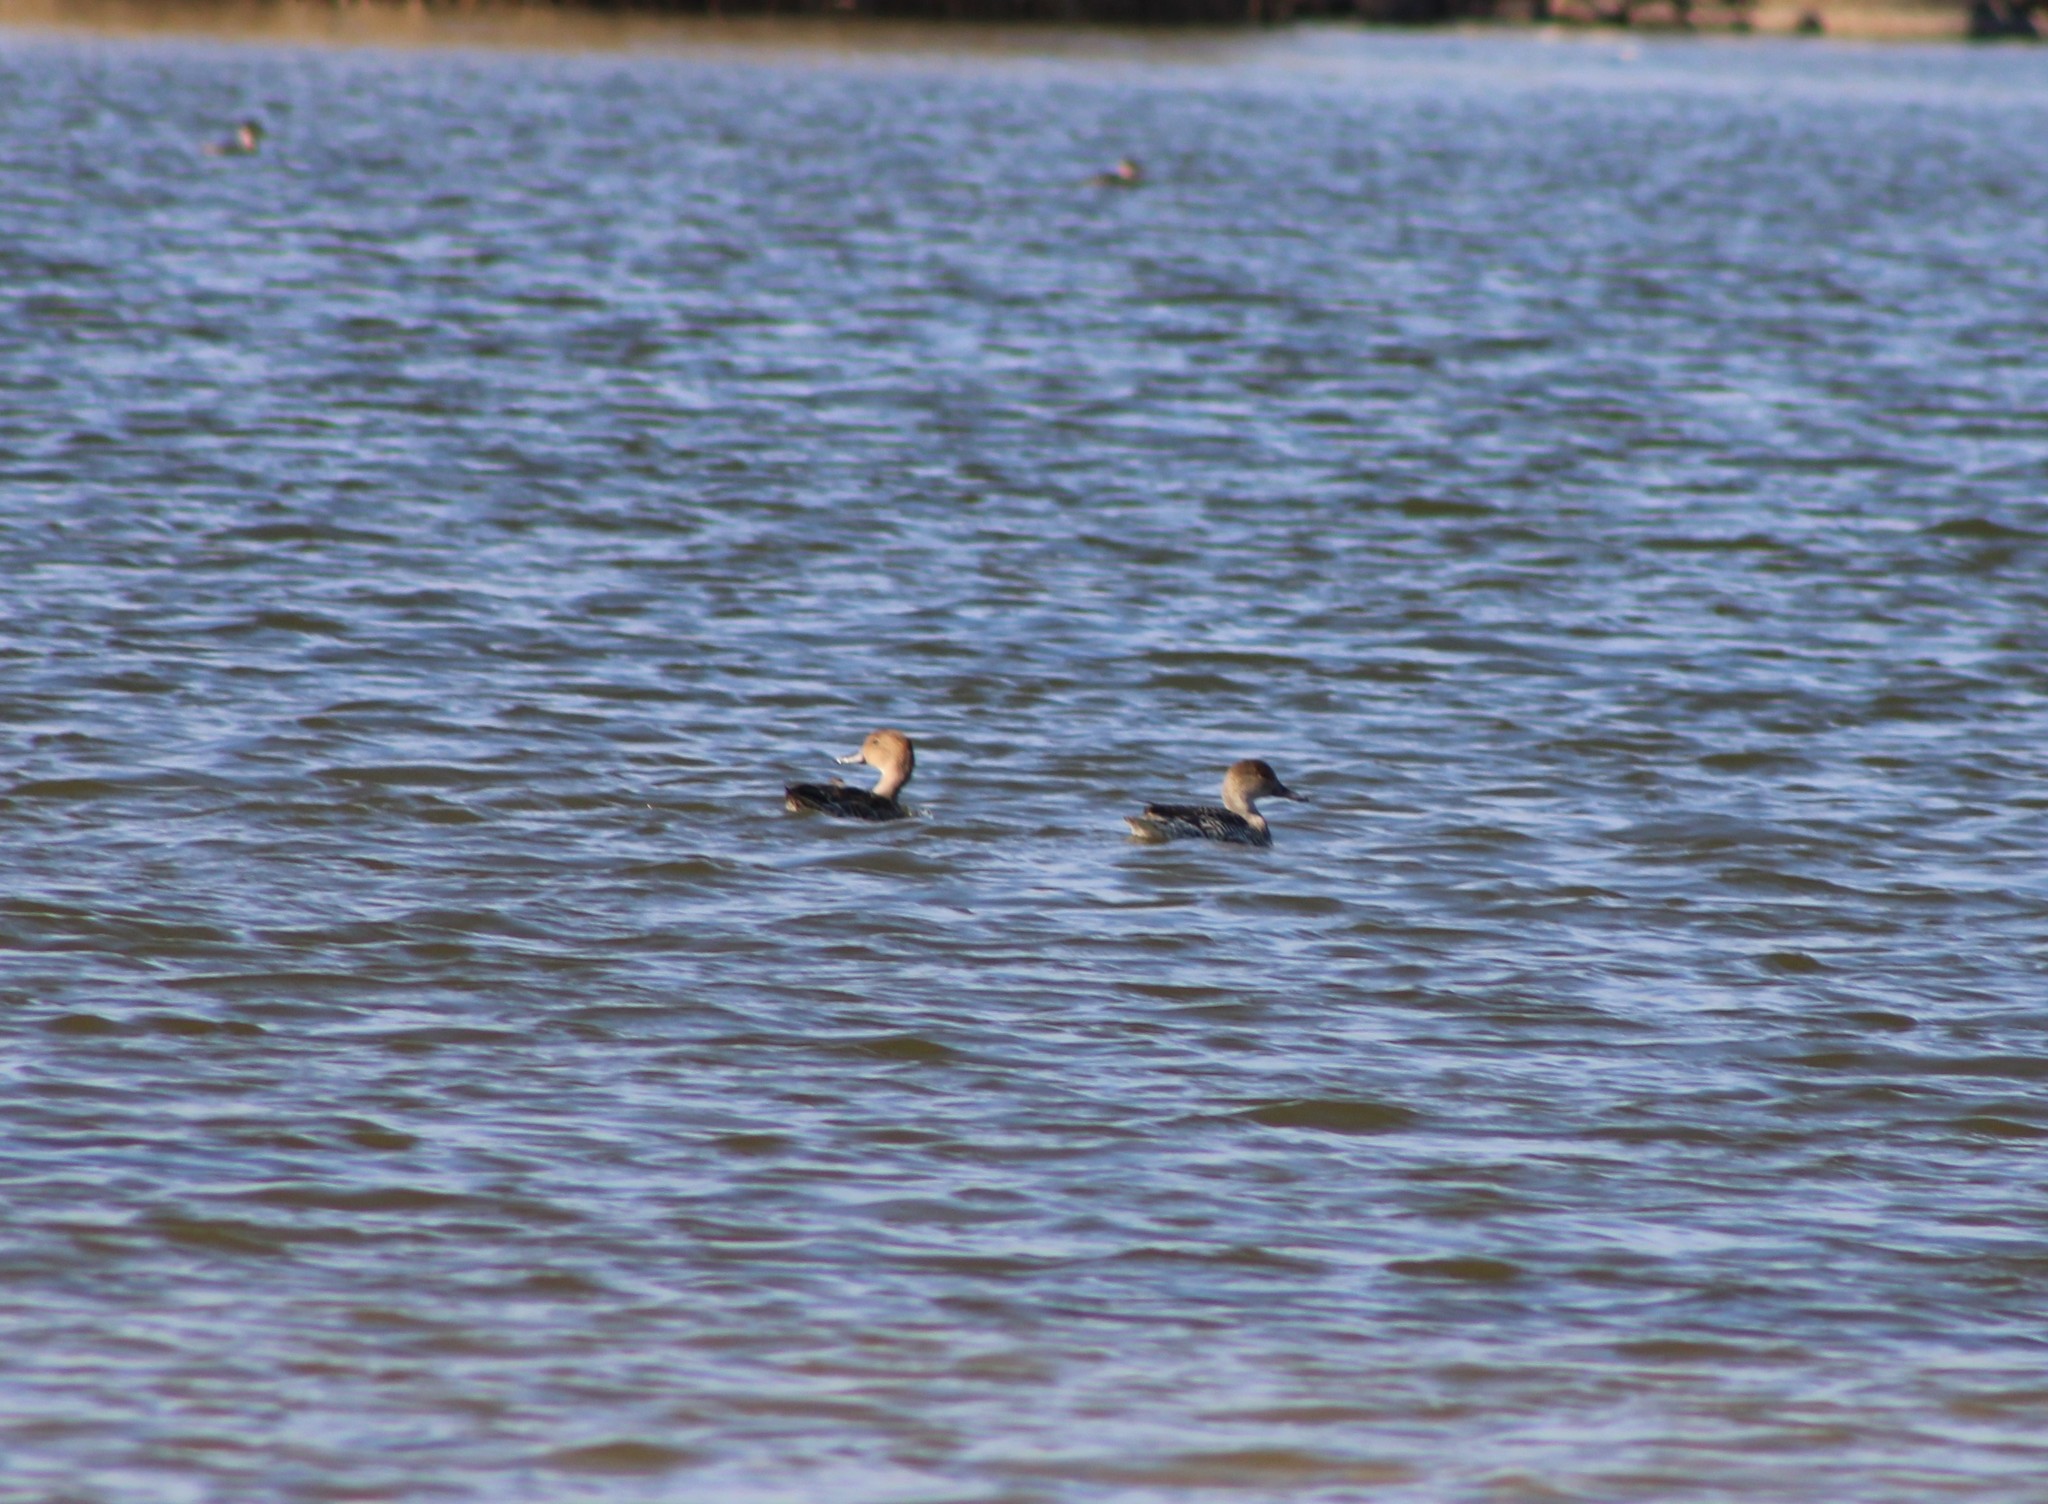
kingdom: Animalia
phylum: Chordata
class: Aves
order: Anseriformes
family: Anatidae
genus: Anas
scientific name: Anas acuta
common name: Northern pintail
